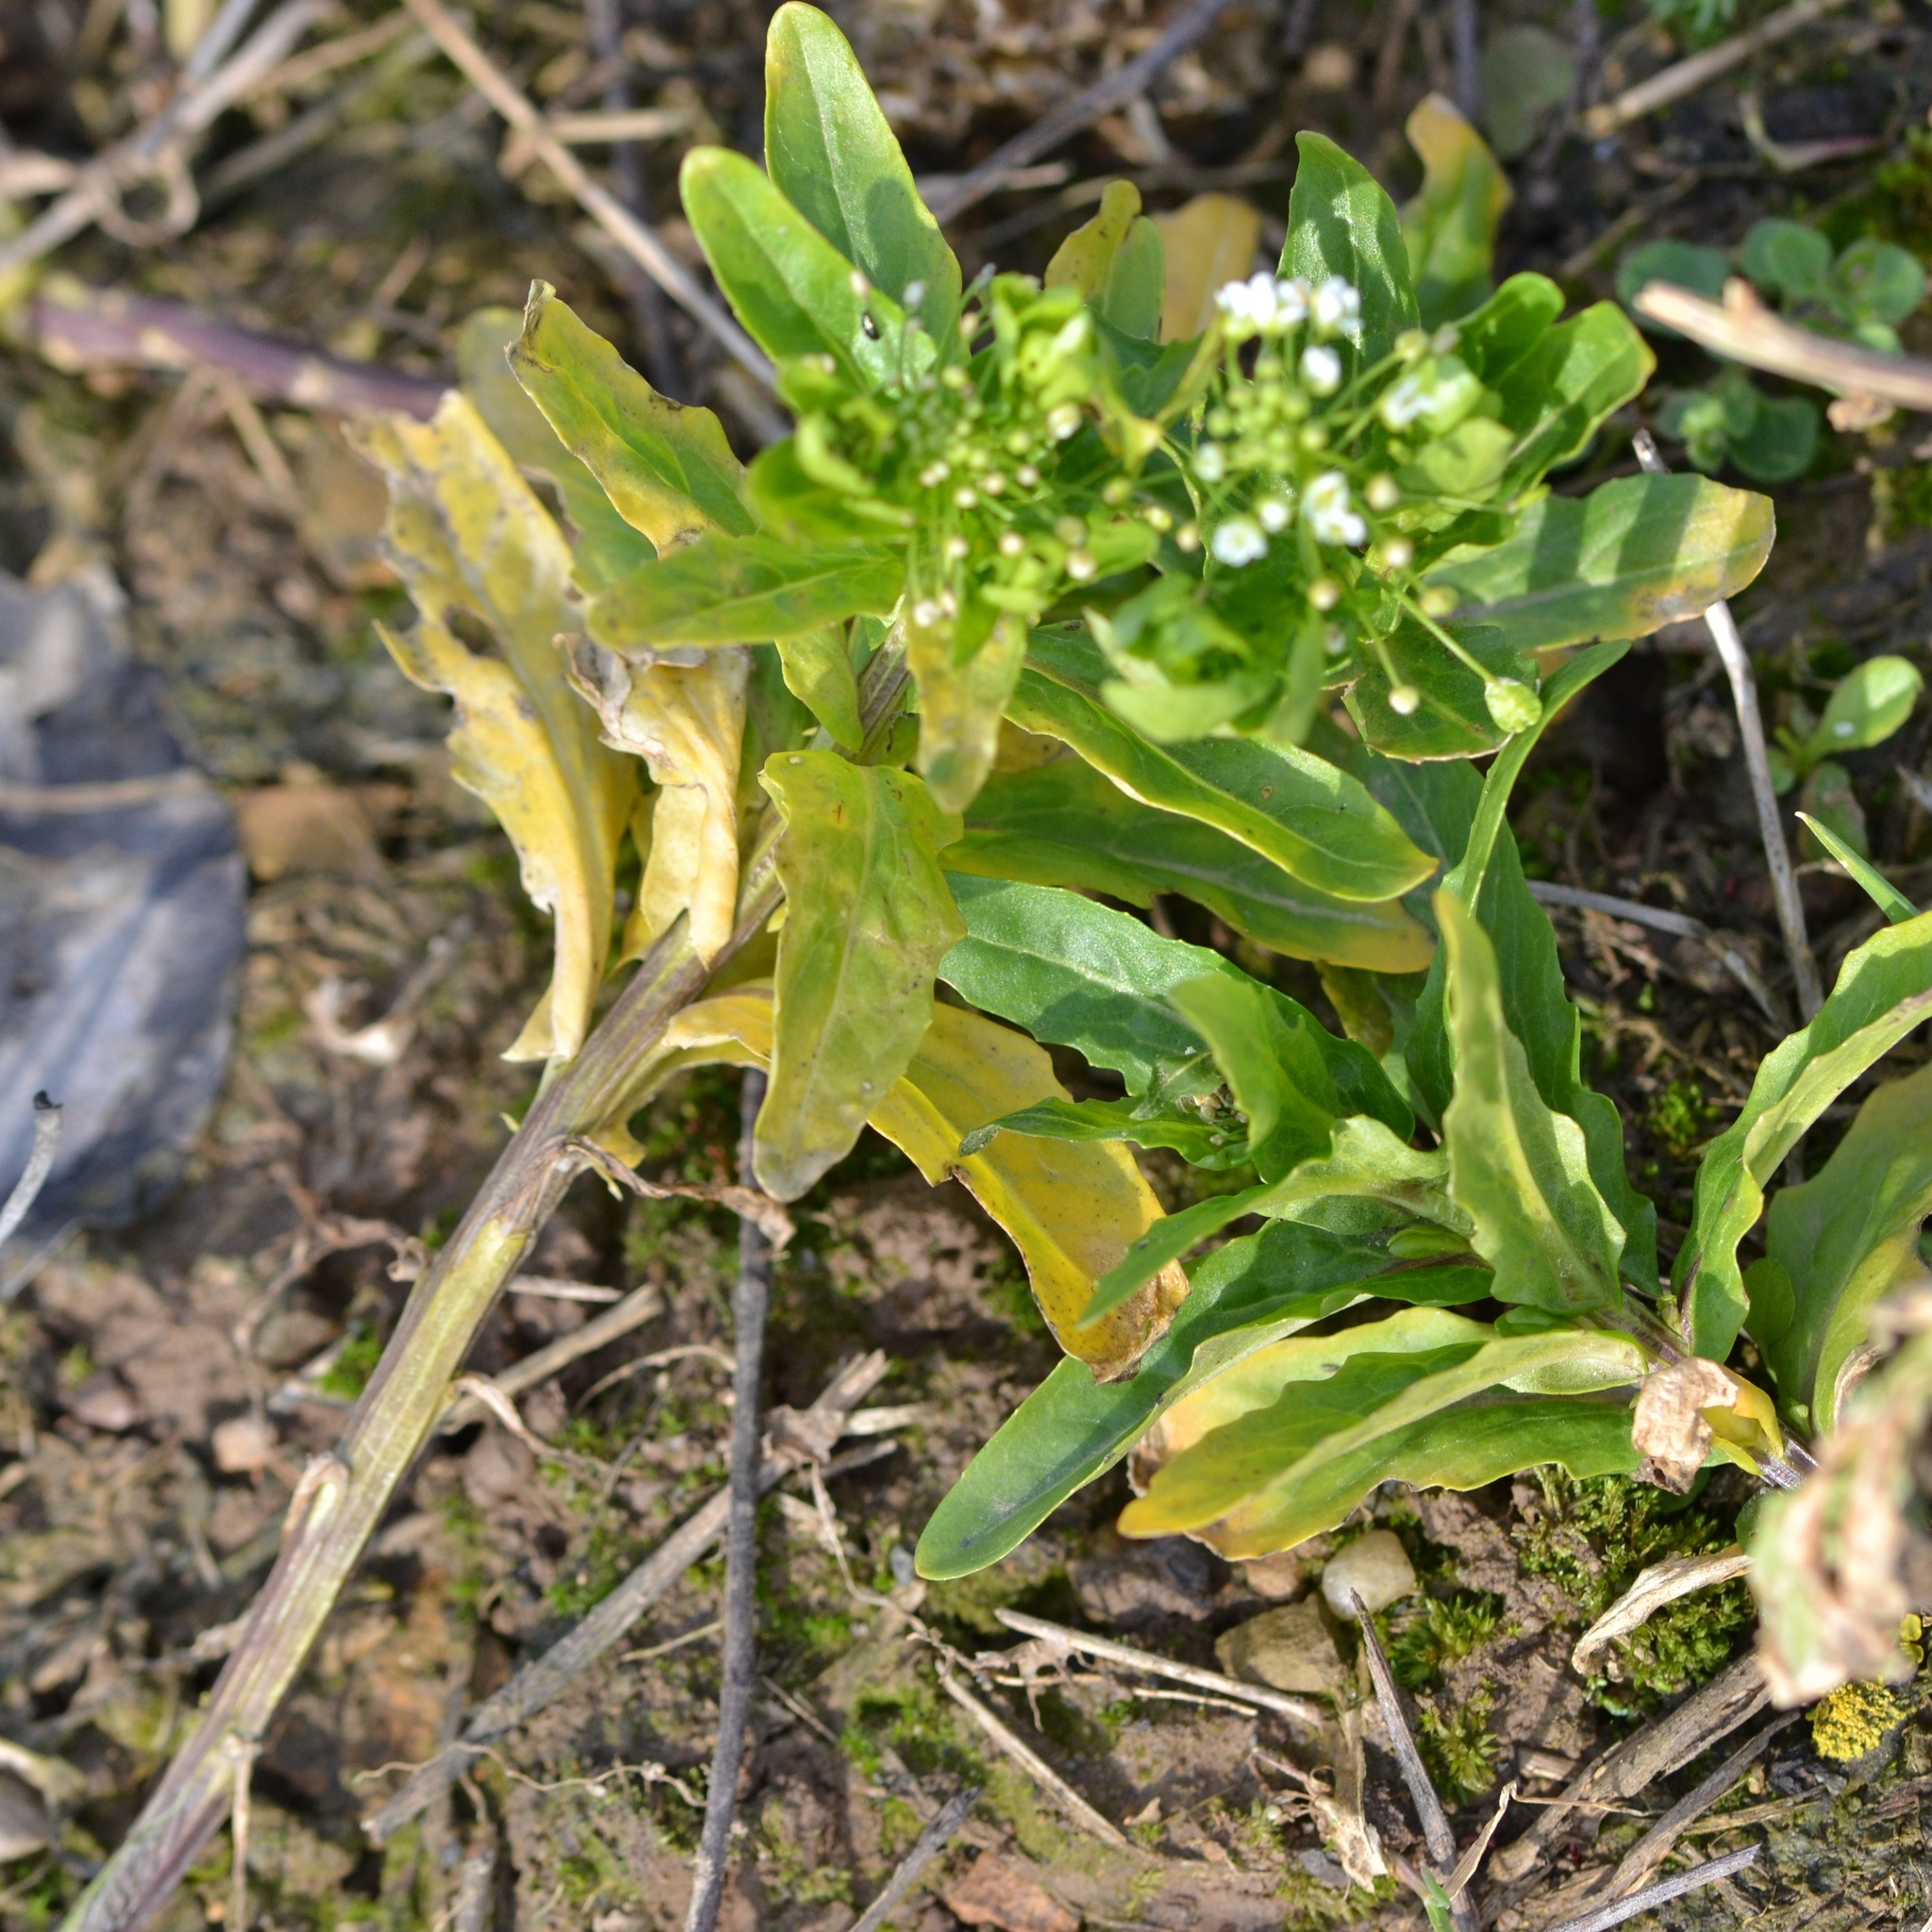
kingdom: Plantae
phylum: Tracheophyta
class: Magnoliopsida
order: Brassicales
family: Brassicaceae
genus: Thlaspi
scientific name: Thlaspi arvense
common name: Field pennycress
